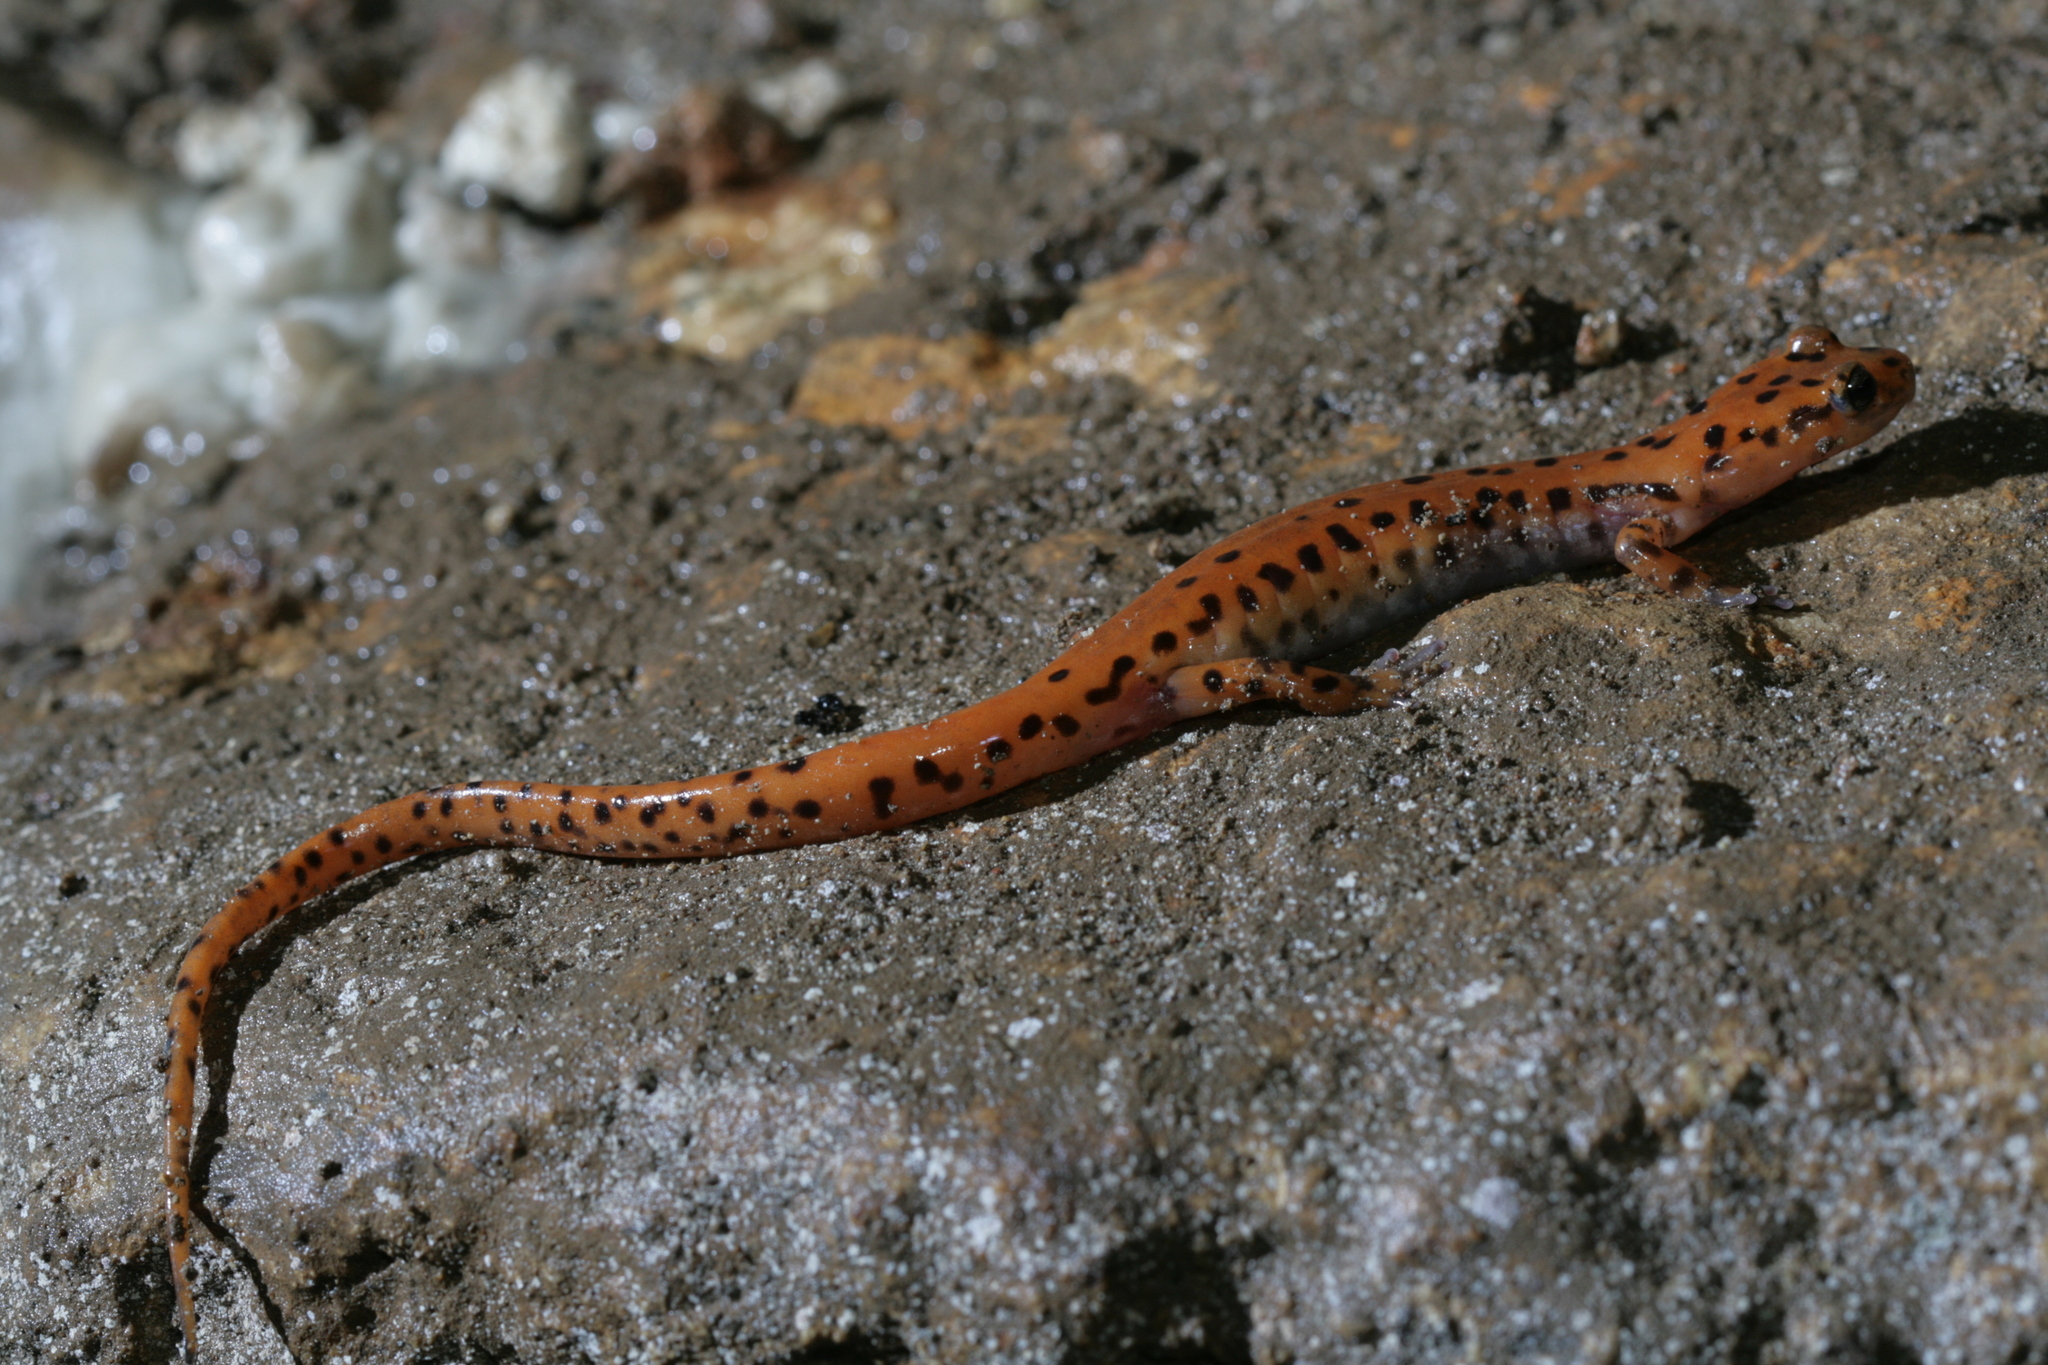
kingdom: Animalia
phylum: Chordata
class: Amphibia
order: Caudata
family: Plethodontidae
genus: Eurycea
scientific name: Eurycea lucifuga
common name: Cave salamander
